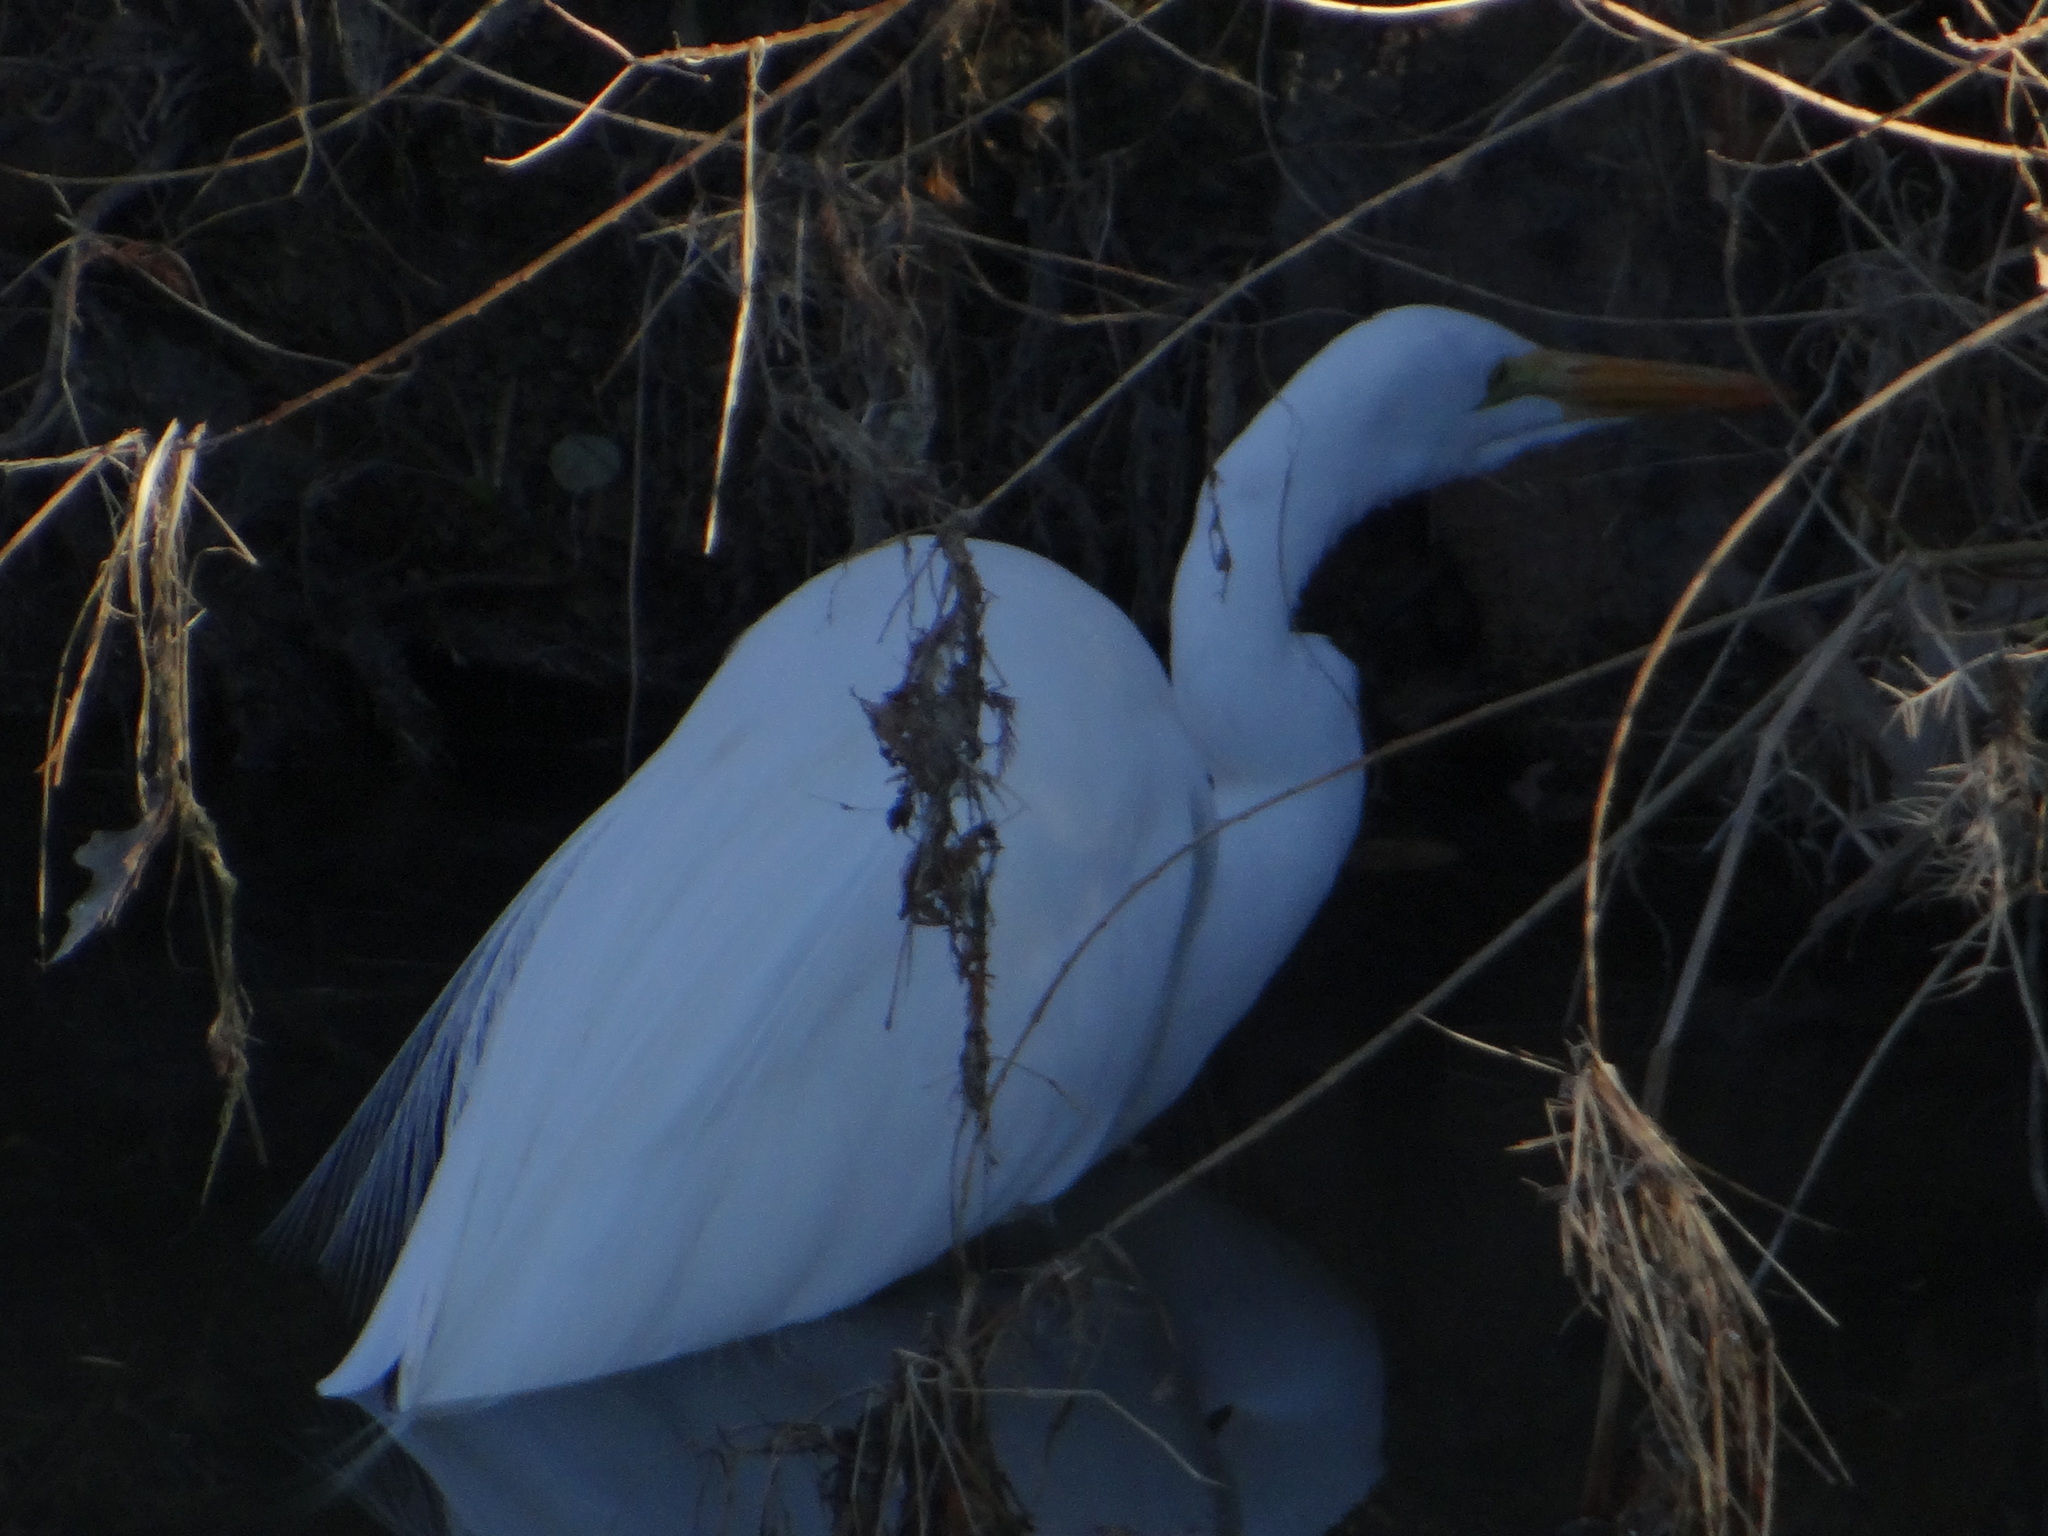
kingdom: Animalia
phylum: Chordata
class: Aves
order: Pelecaniformes
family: Ardeidae
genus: Ardea
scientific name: Ardea alba
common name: Great egret
